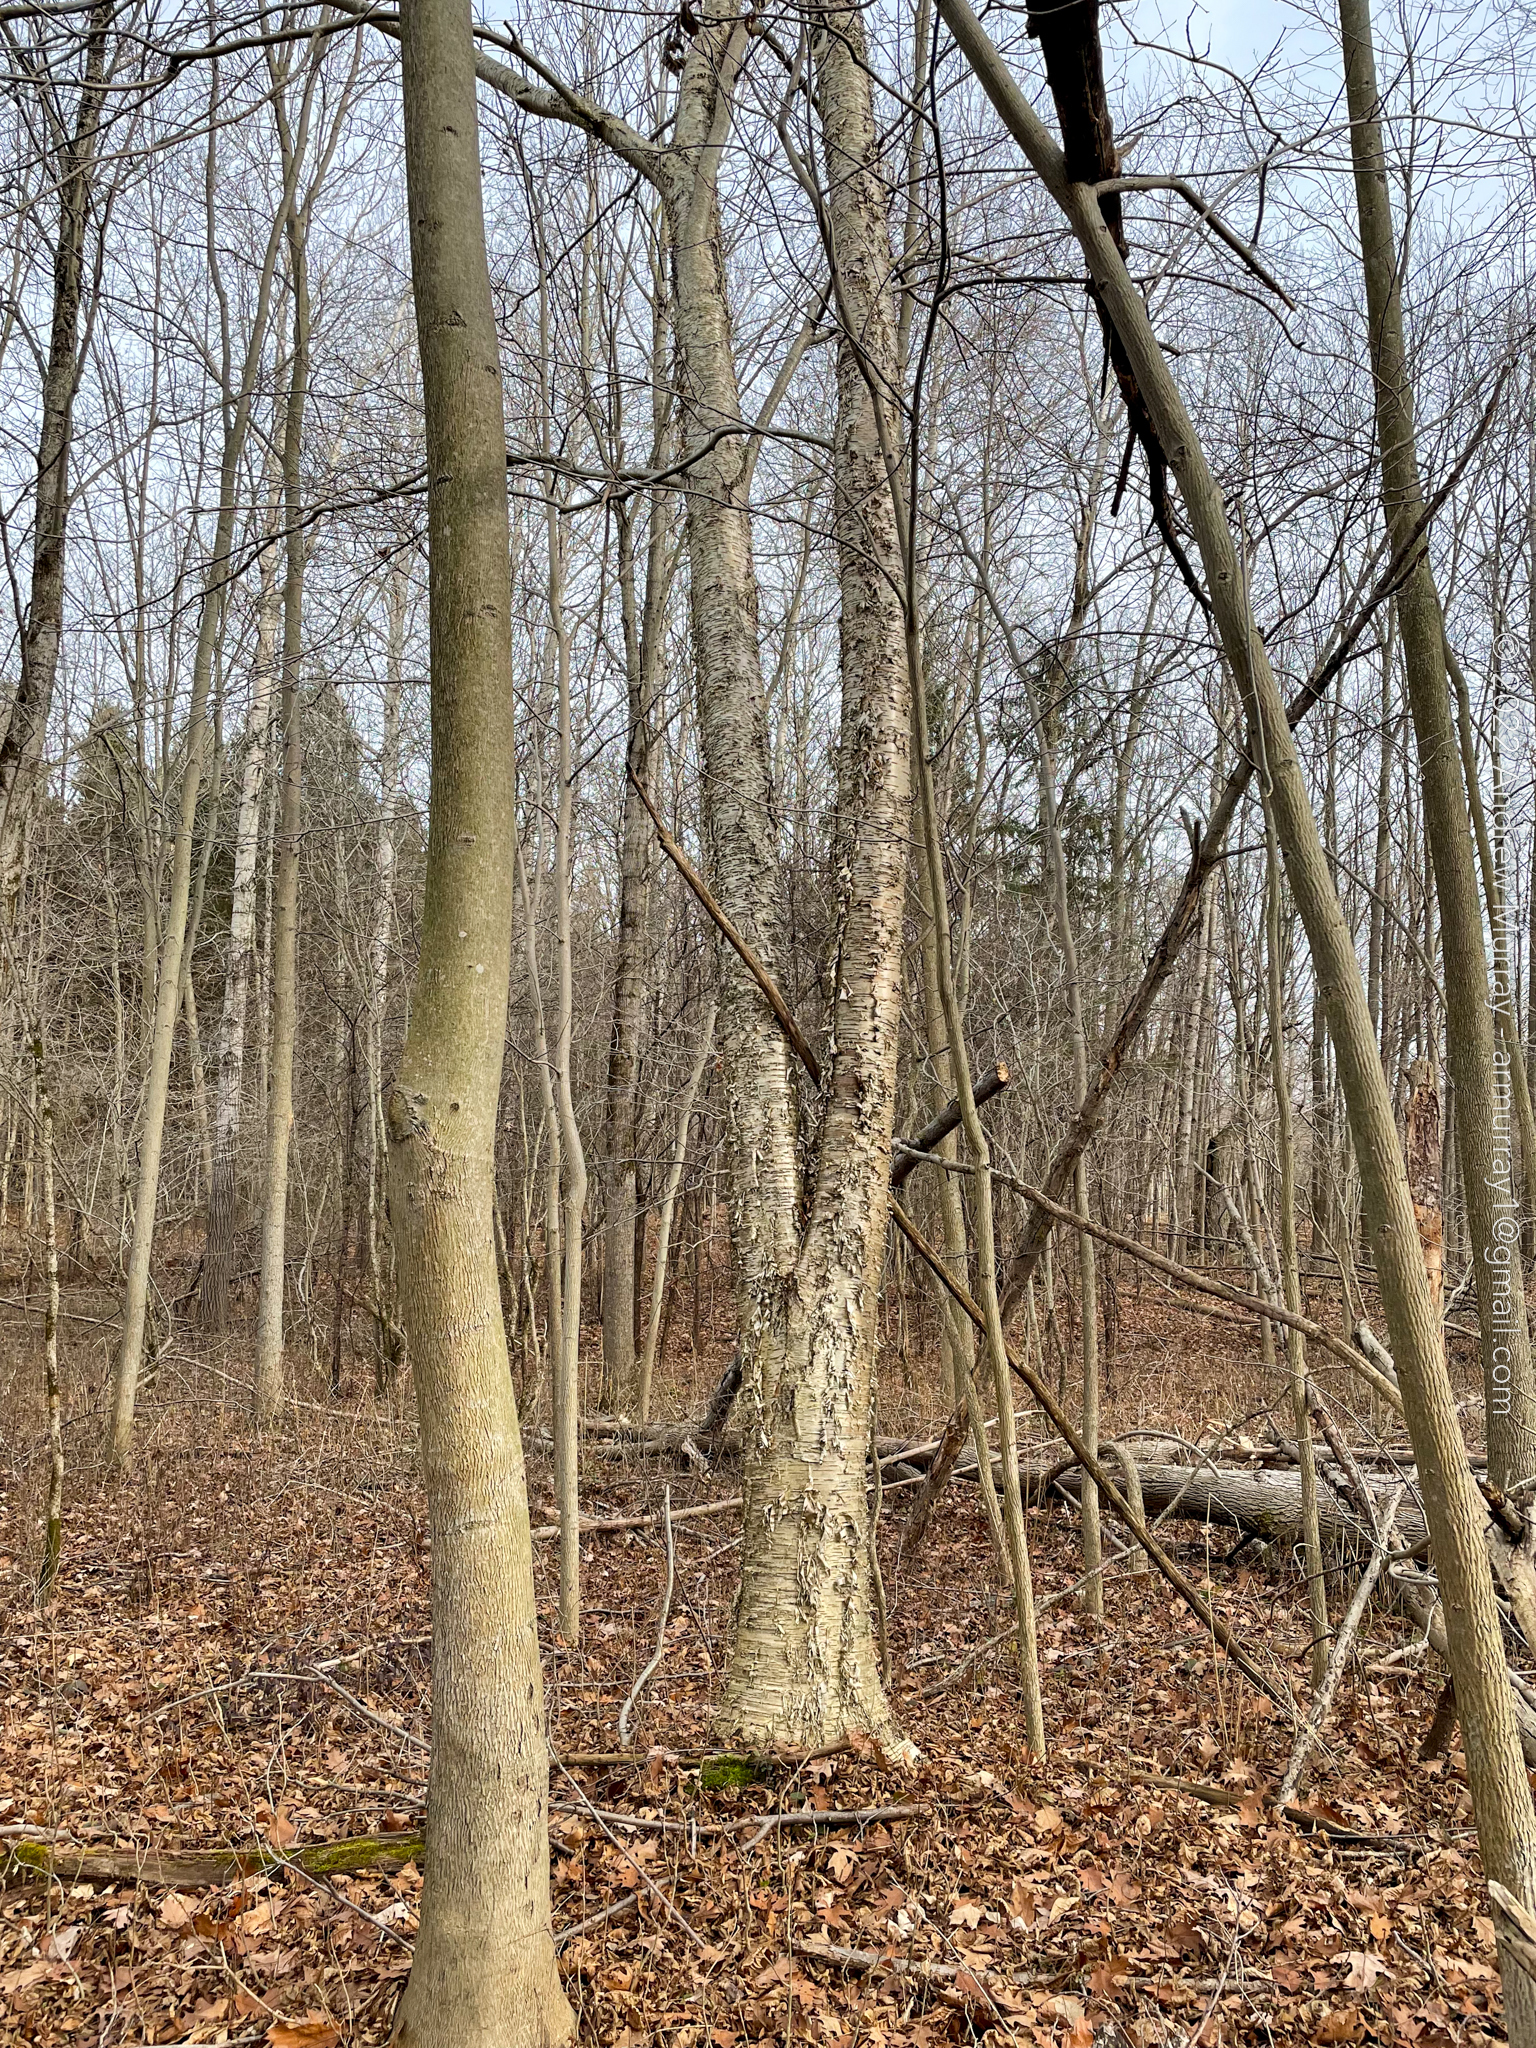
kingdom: Plantae
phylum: Tracheophyta
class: Magnoliopsida
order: Fagales
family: Betulaceae
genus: Betula
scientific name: Betula alleghaniensis
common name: Yellow birch
